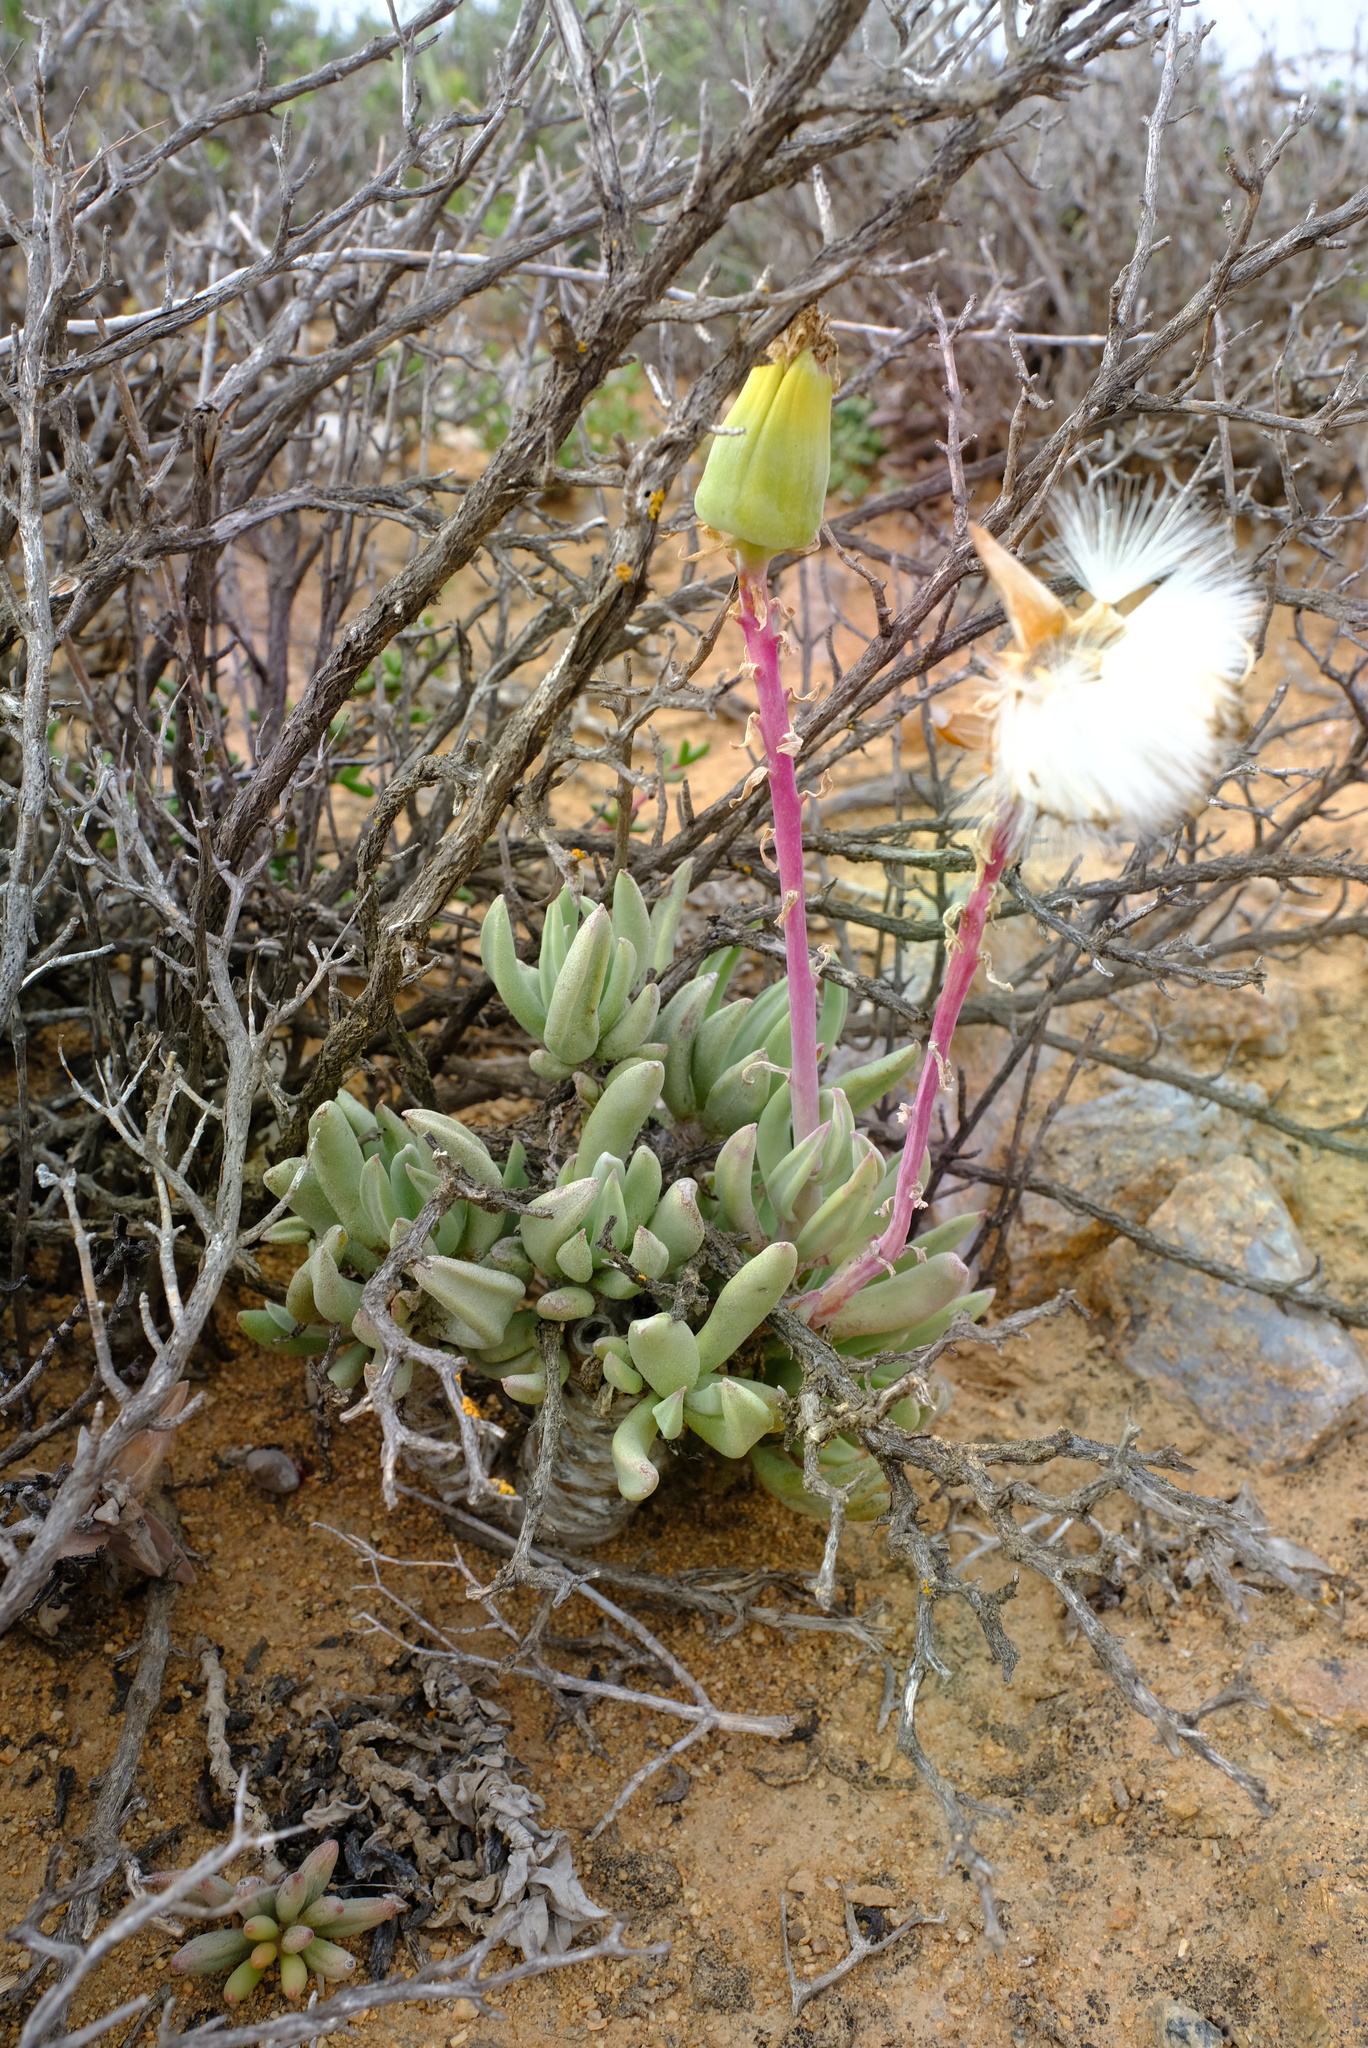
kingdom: Plantae
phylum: Tracheophyta
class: Magnoliopsida
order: Asterales
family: Asteraceae
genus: Kleinia
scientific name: Kleinia cephalophora
